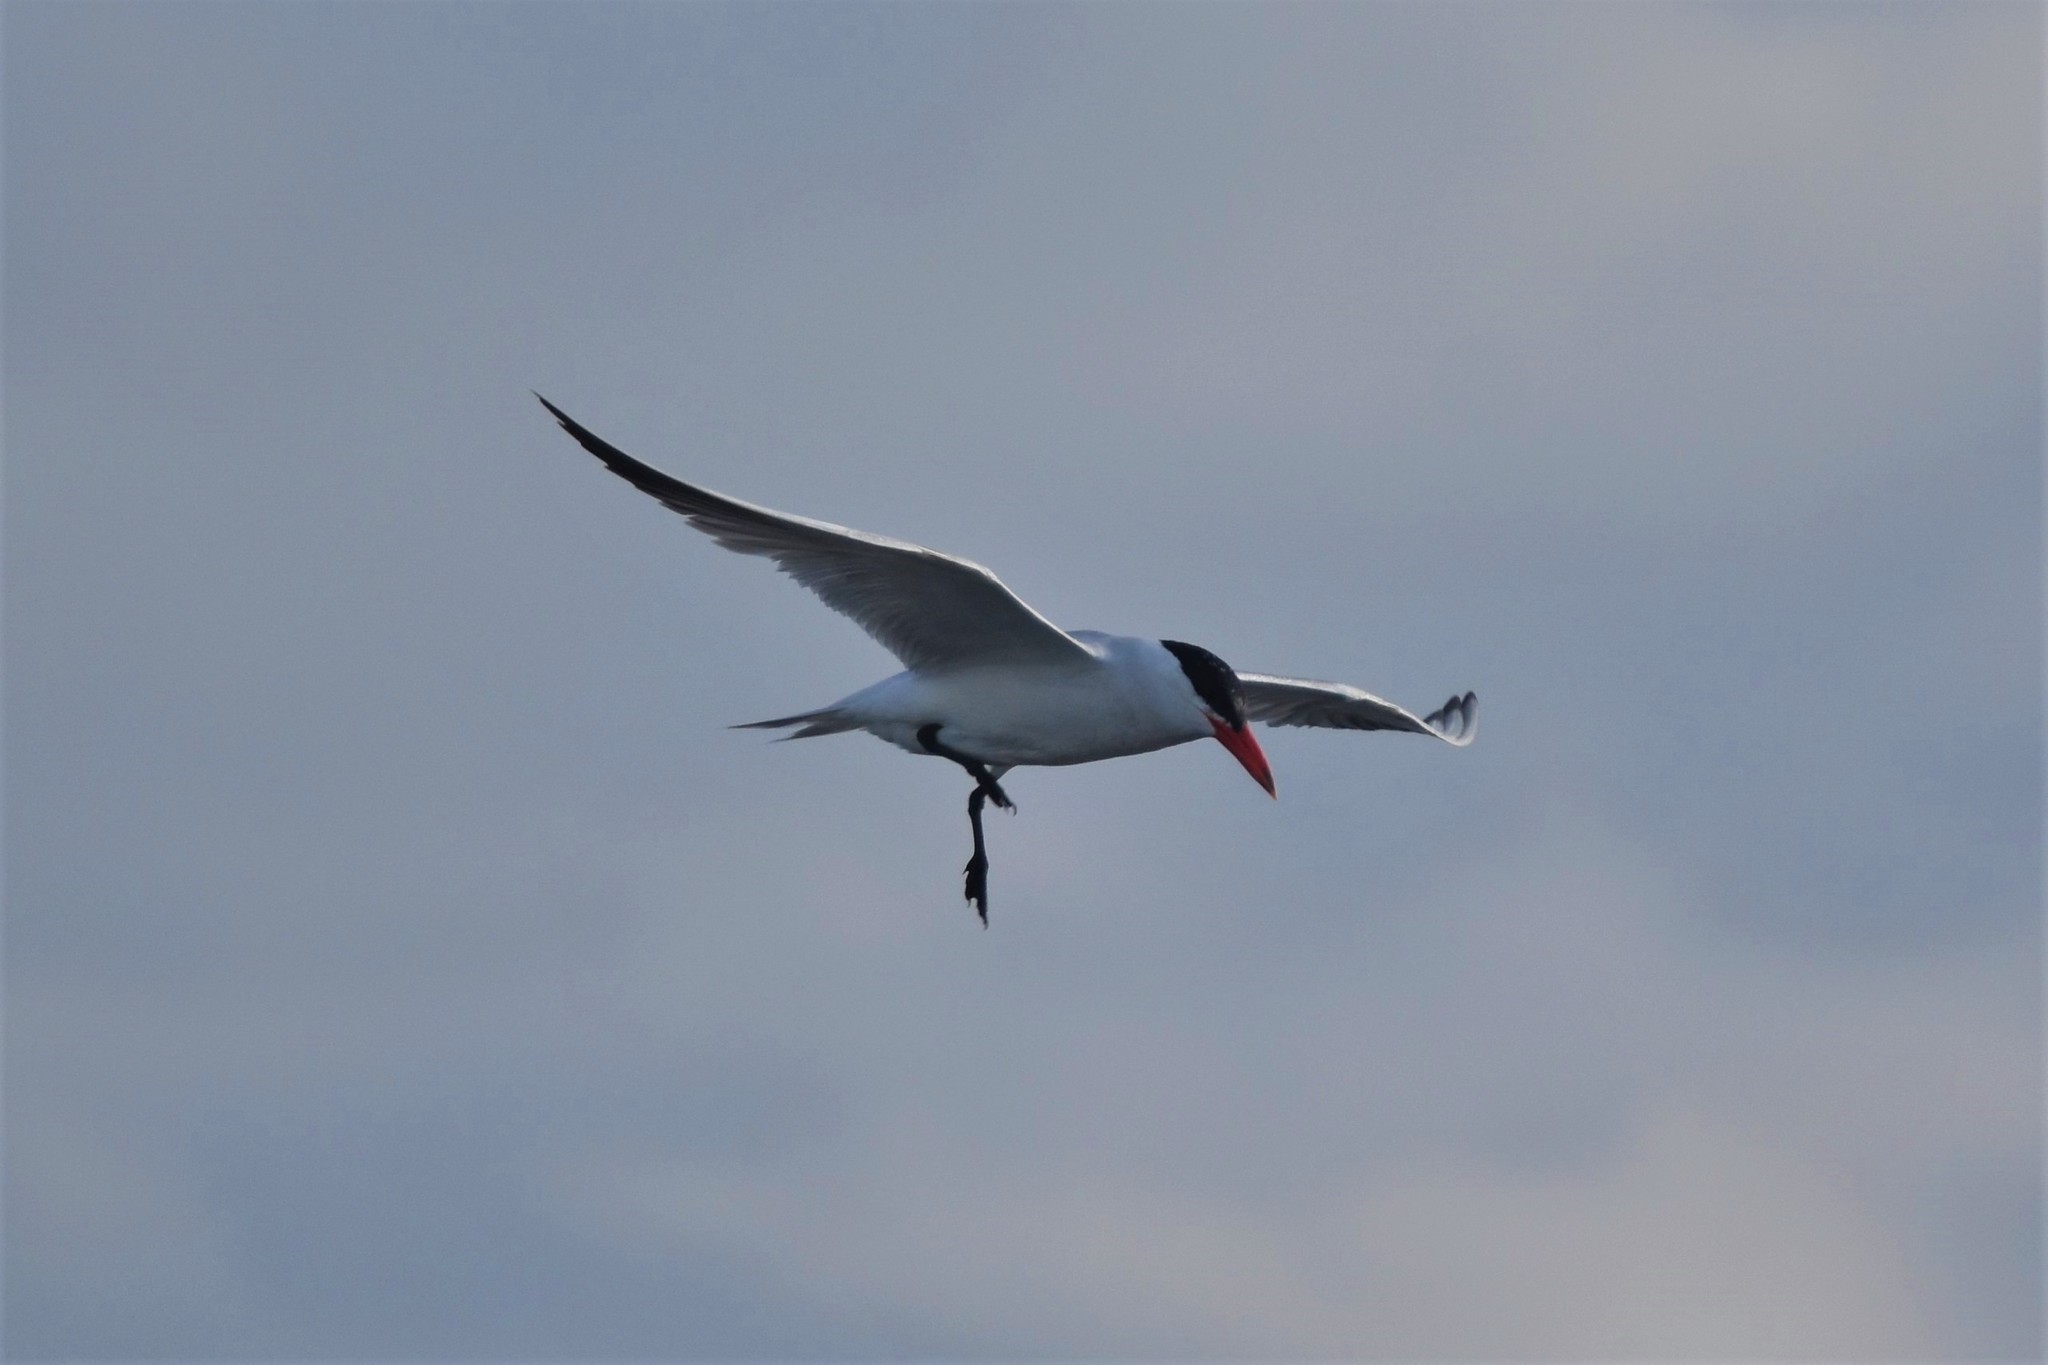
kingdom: Animalia
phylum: Chordata
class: Aves
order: Charadriiformes
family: Laridae
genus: Hydroprogne
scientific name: Hydroprogne caspia
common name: Caspian tern
